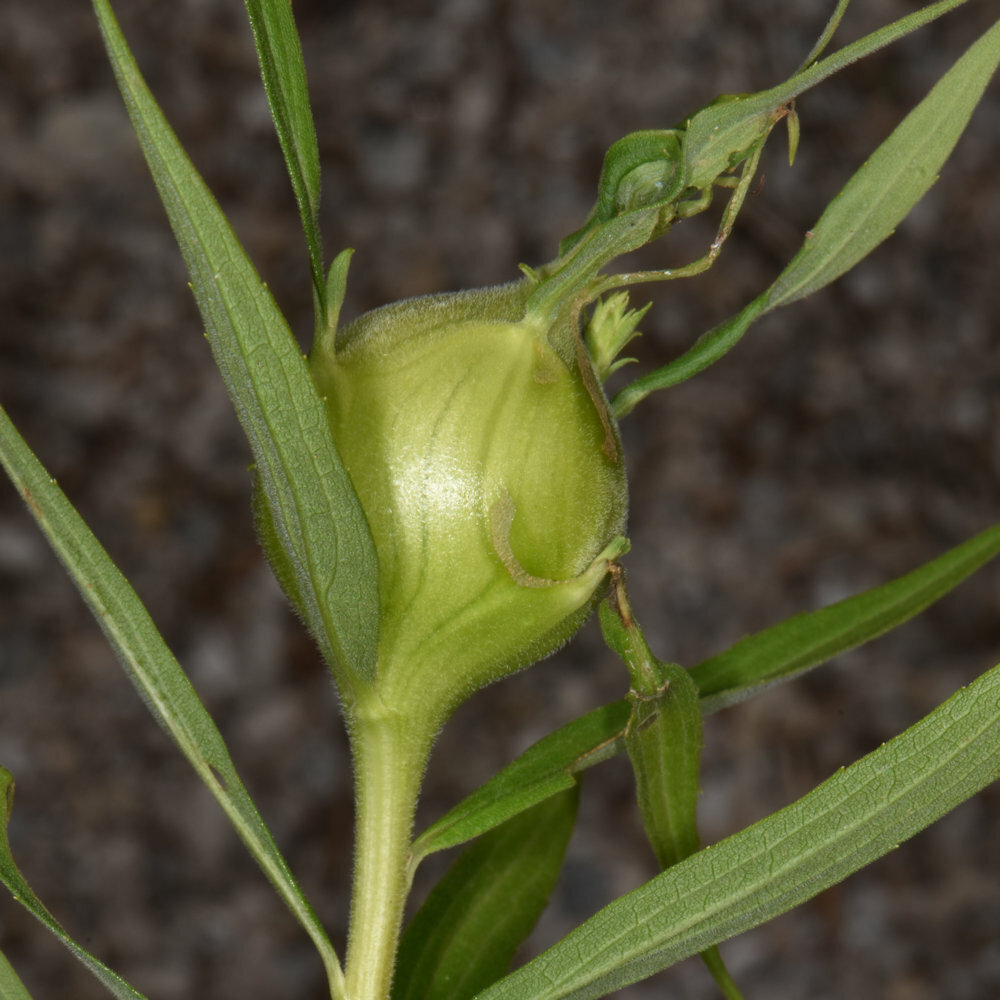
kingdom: Animalia
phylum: Arthropoda
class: Insecta
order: Diptera
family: Tephritidae
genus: Eurosta
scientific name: Eurosta solidaginis
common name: Goldenrod gall fly
